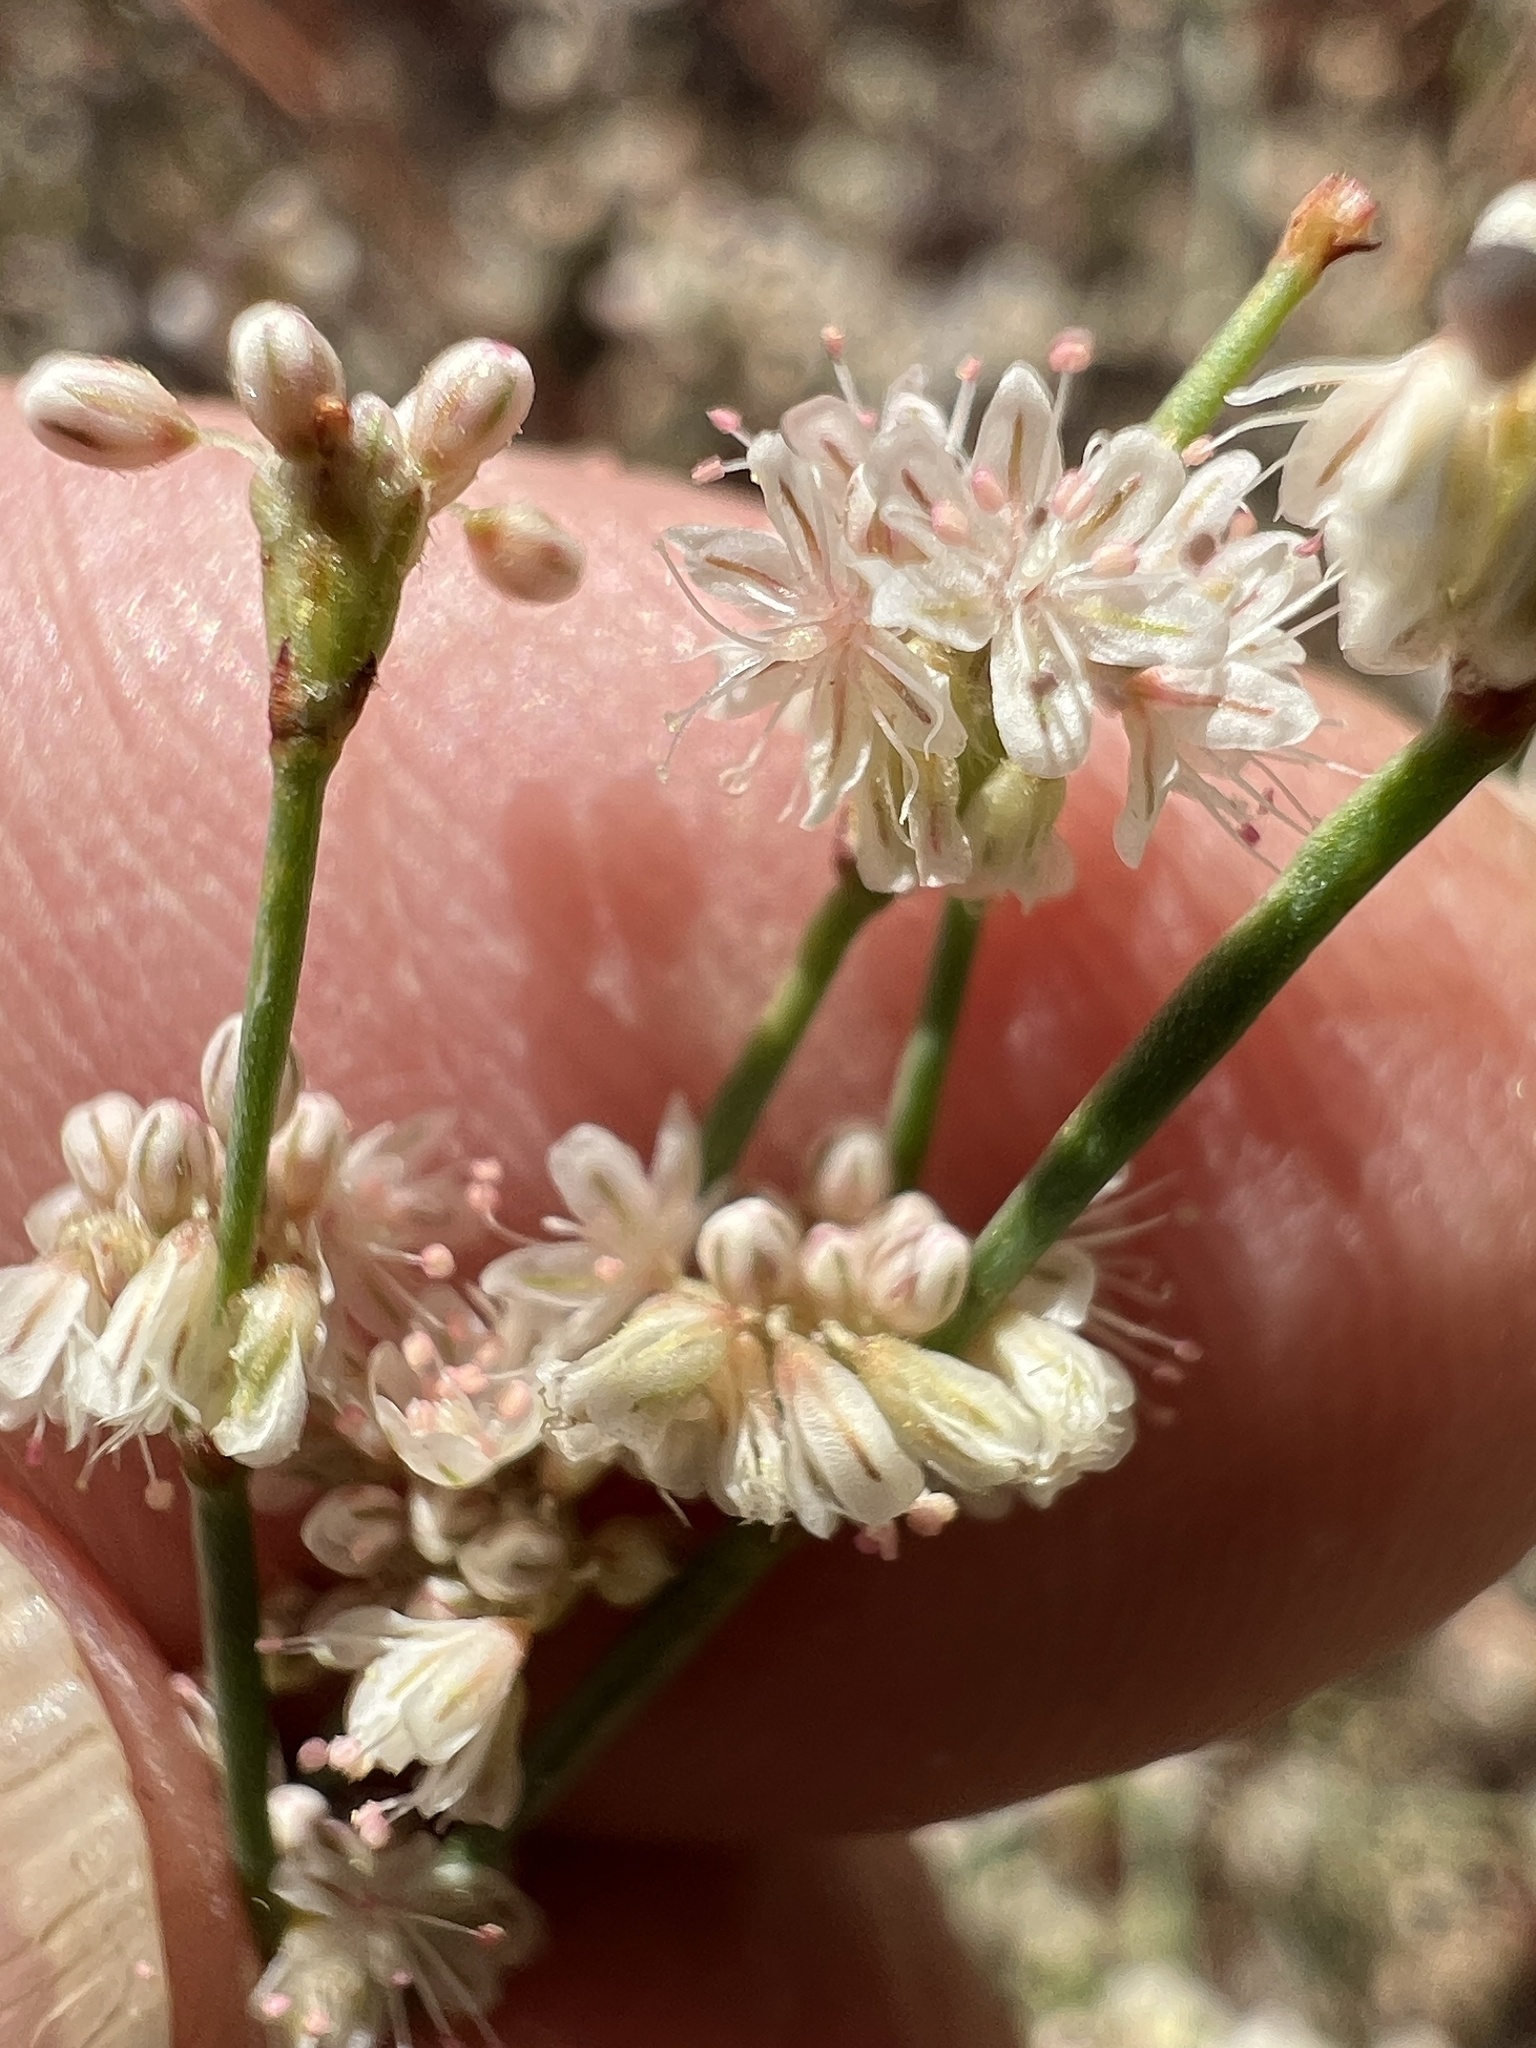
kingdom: Plantae
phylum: Tracheophyta
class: Magnoliopsida
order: Caryophyllales
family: Polygonaceae
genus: Eriogonum
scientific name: Eriogonum baileyi
